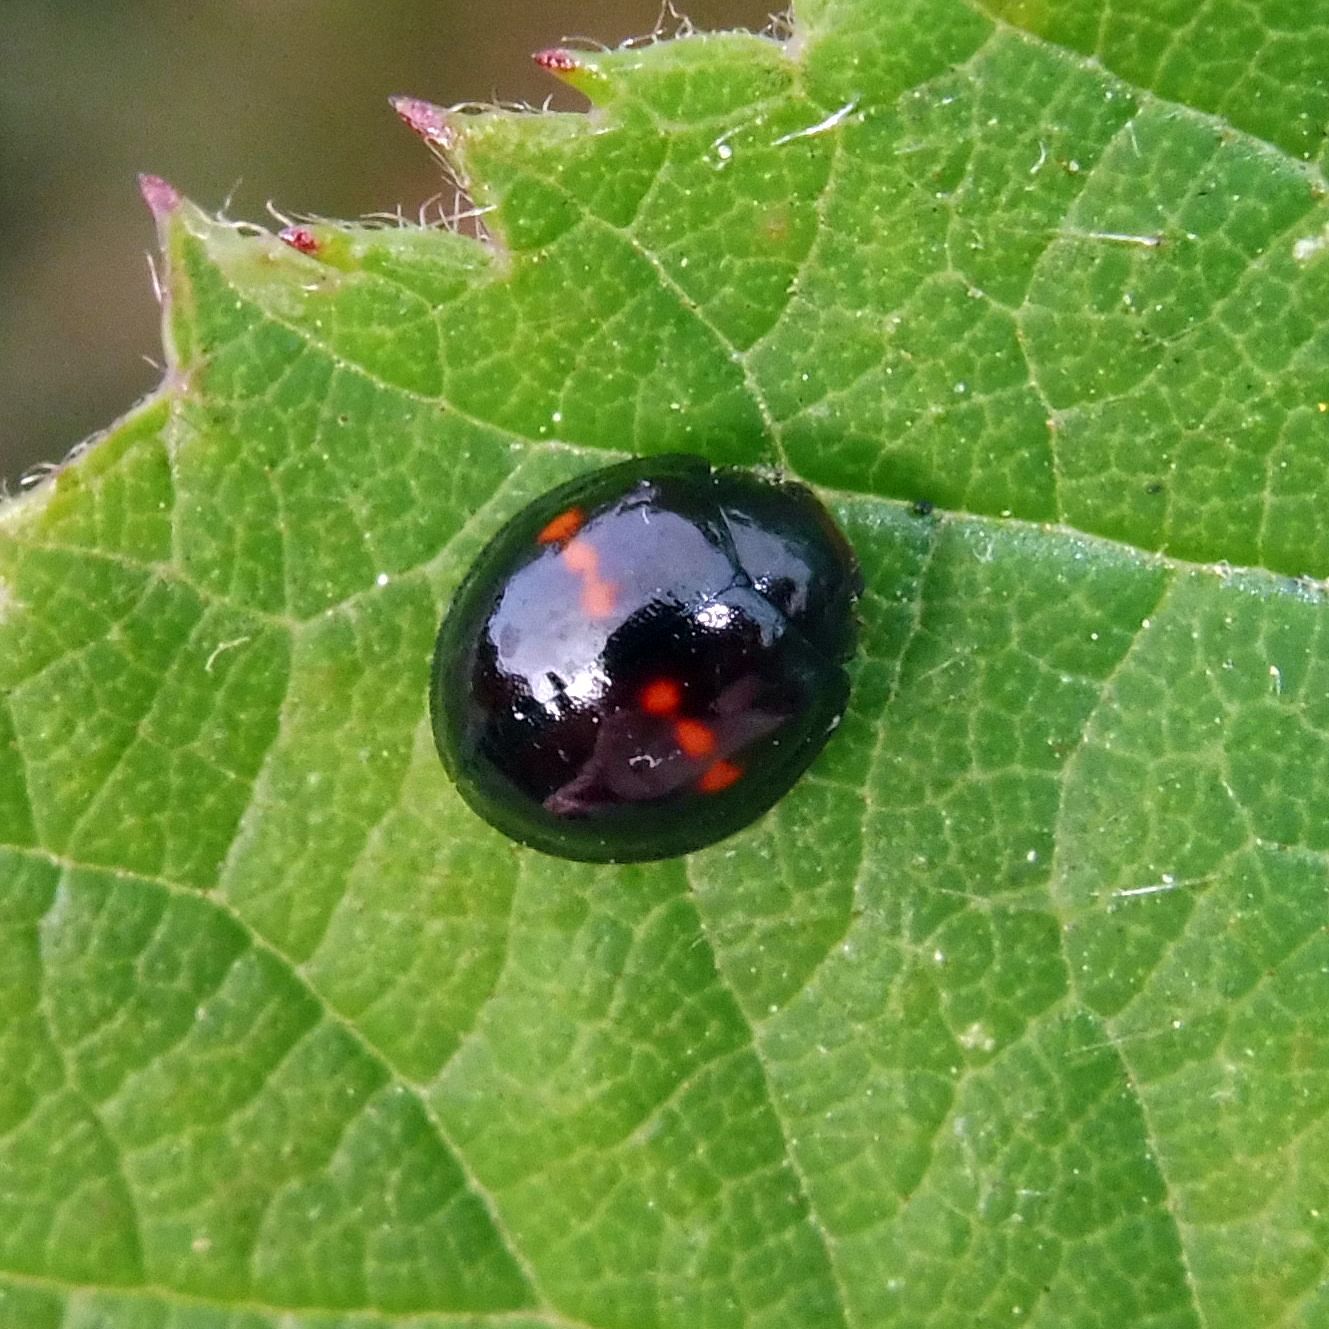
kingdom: Animalia
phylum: Arthropoda
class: Insecta
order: Coleoptera
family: Coccinellidae
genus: Chilocorus
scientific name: Chilocorus bipustulatus
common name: Heather ladybird
